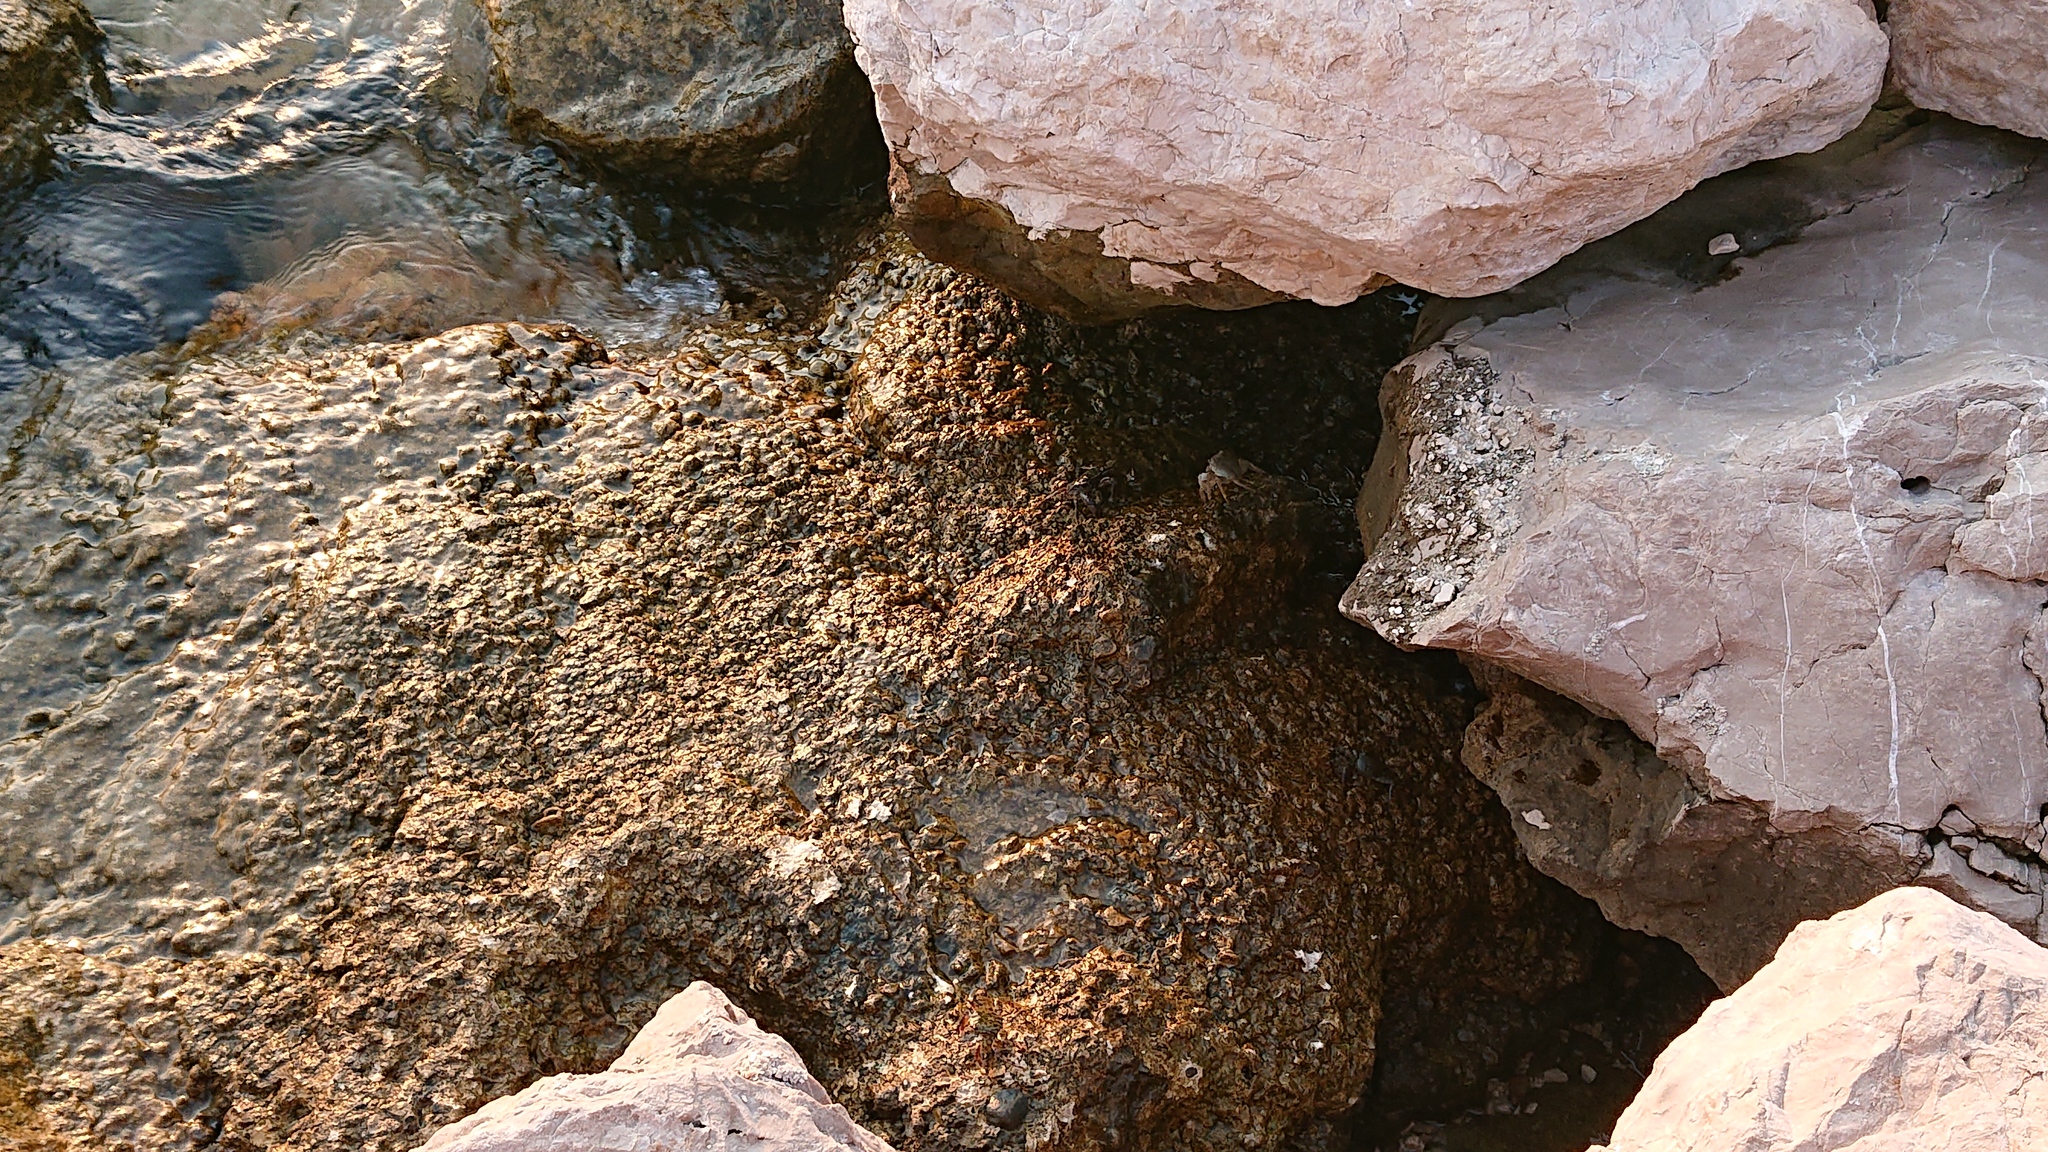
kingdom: Animalia
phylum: Arthropoda
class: Malacostraca
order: Decapoda
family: Grapsidae
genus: Pachygrapsus
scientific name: Pachygrapsus marmoratus
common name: Marbled rock crab
